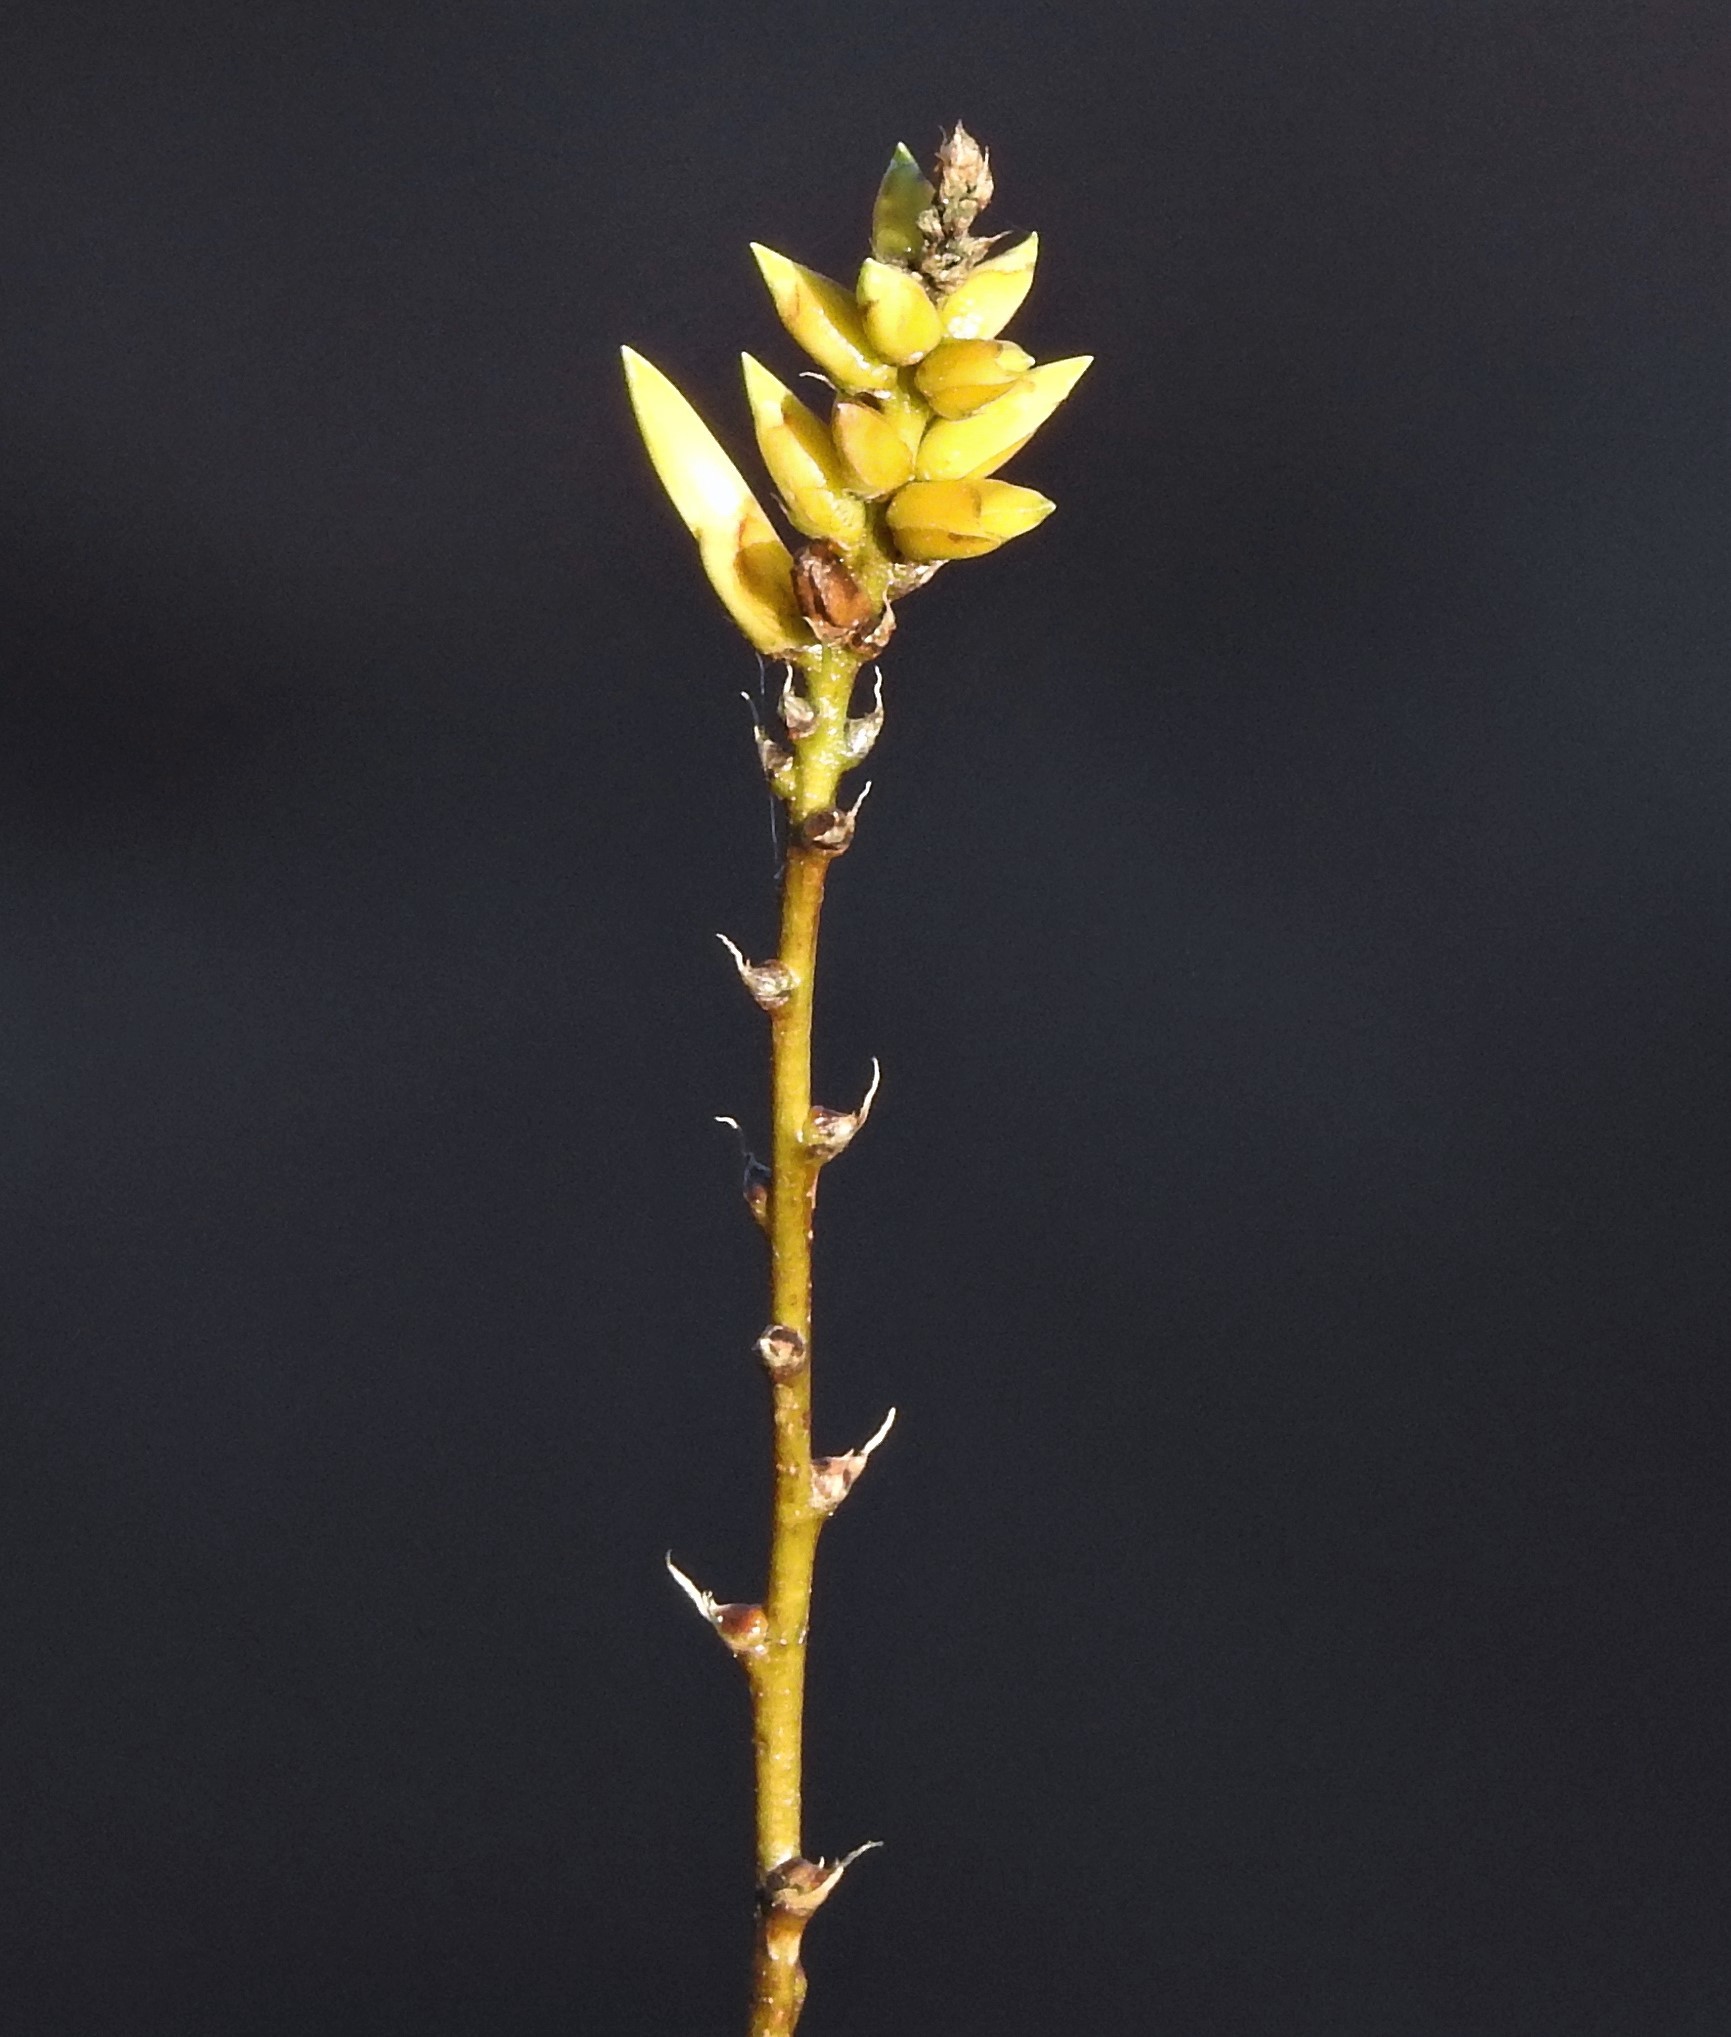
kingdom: Plantae
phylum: Tracheophyta
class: Liliopsida
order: Poales
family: Bromeliaceae
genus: Dyckia
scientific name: Dyckia floribunda
